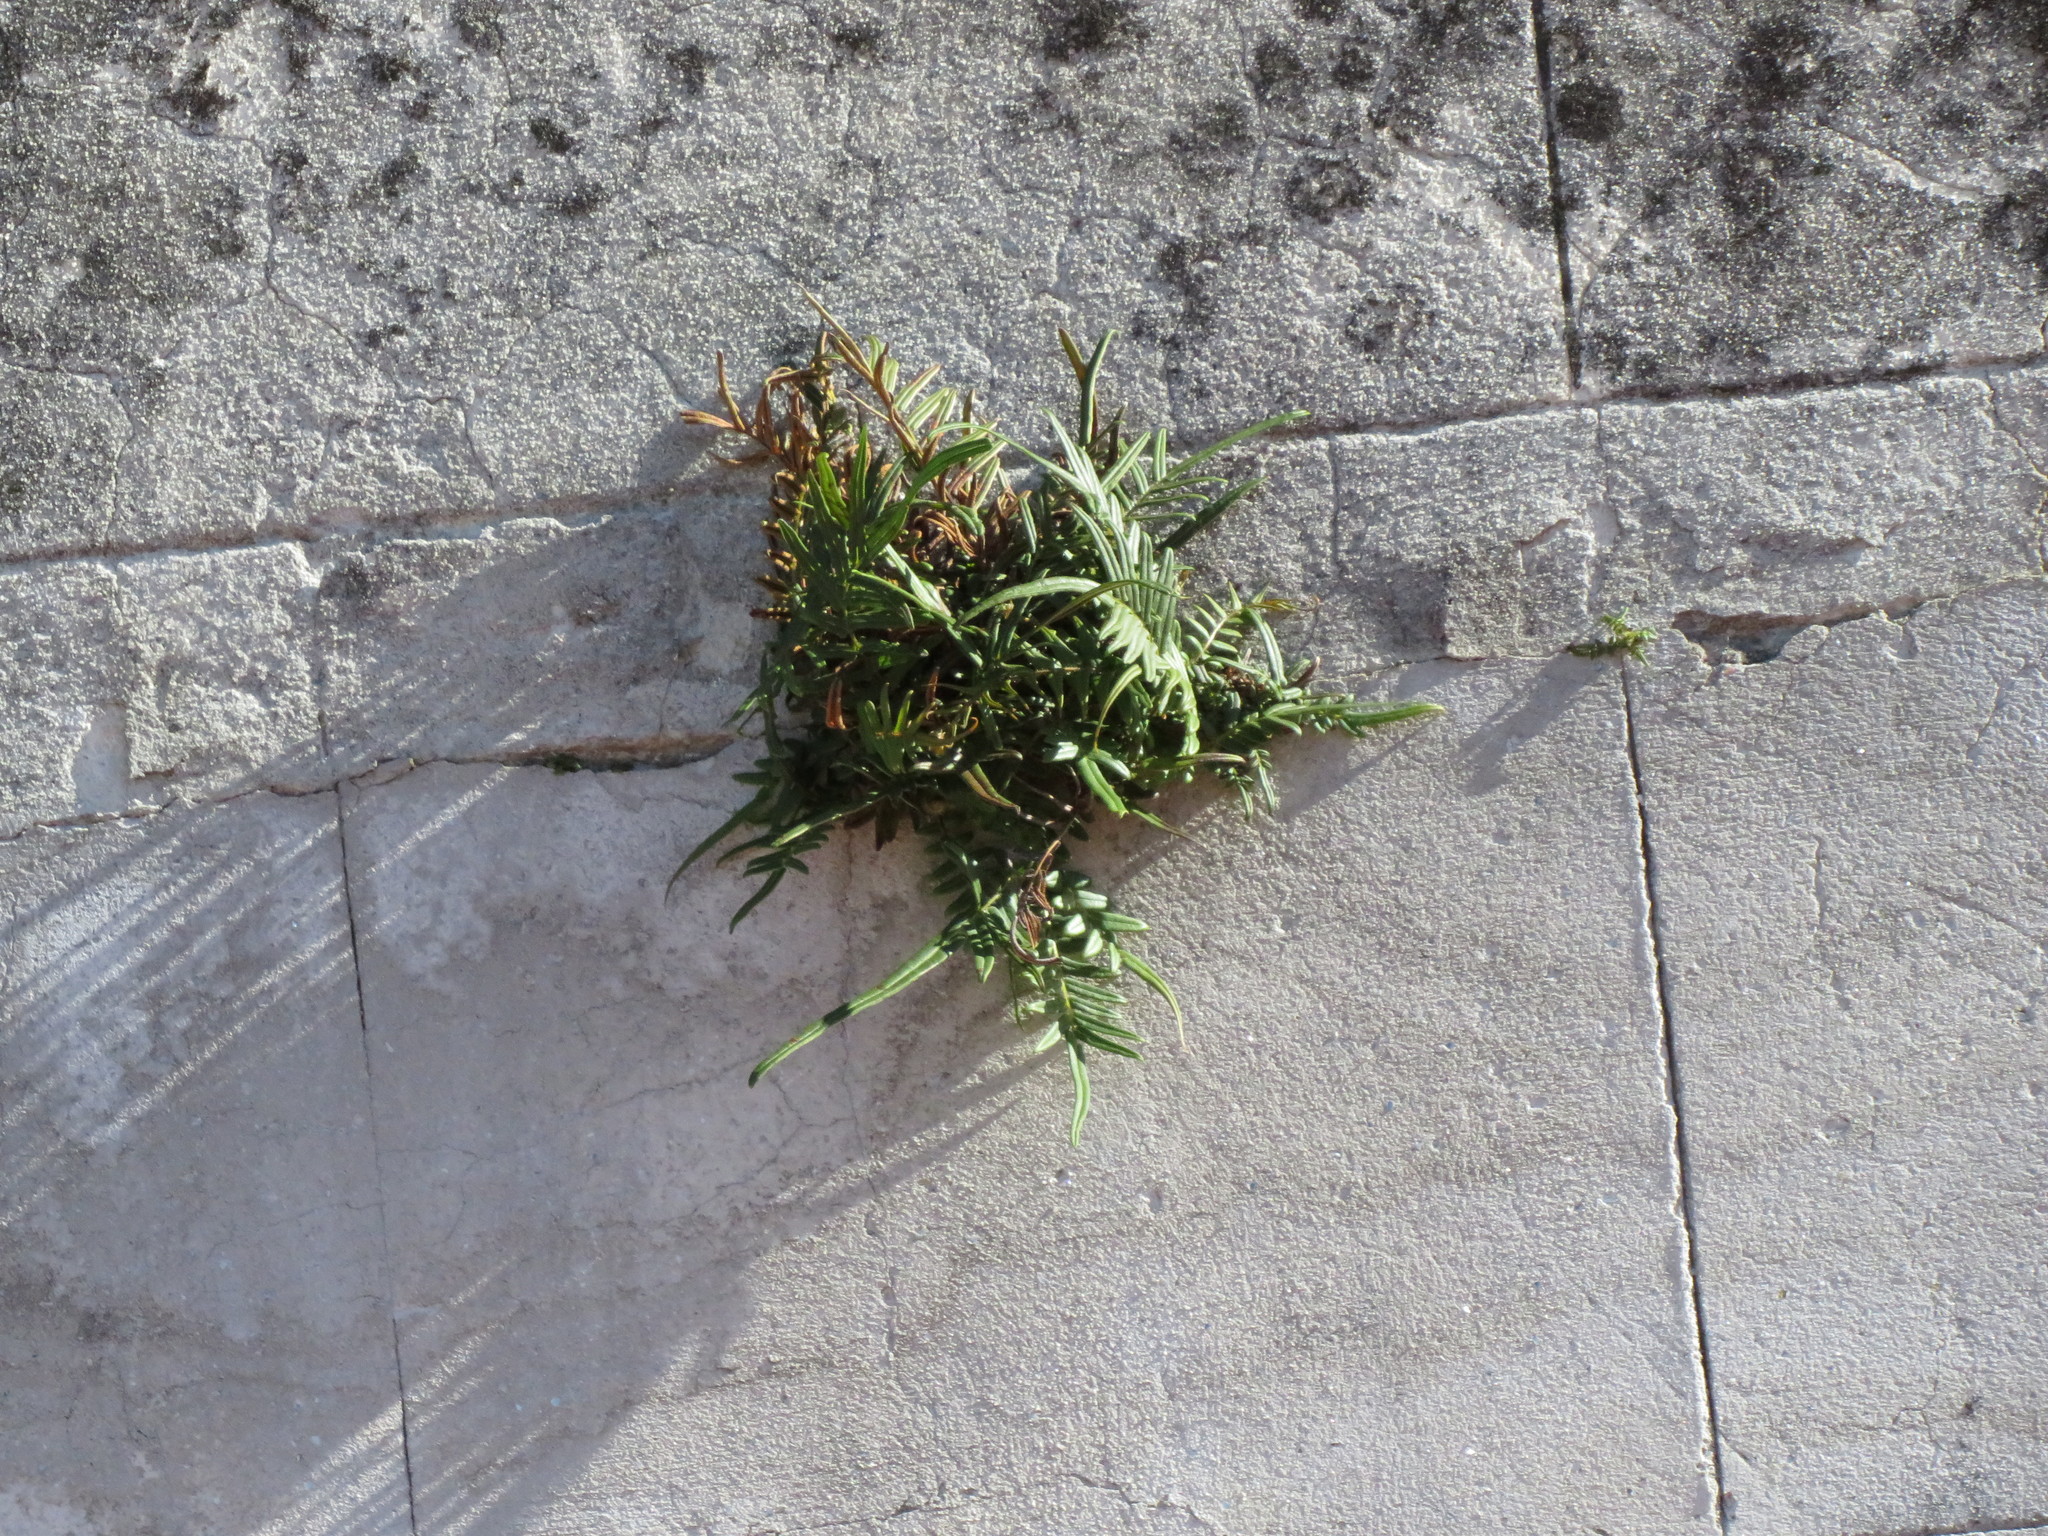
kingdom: Plantae
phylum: Tracheophyta
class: Polypodiopsida
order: Polypodiales
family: Pteridaceae
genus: Pteris
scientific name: Pteris vittata
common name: Ladder brake
